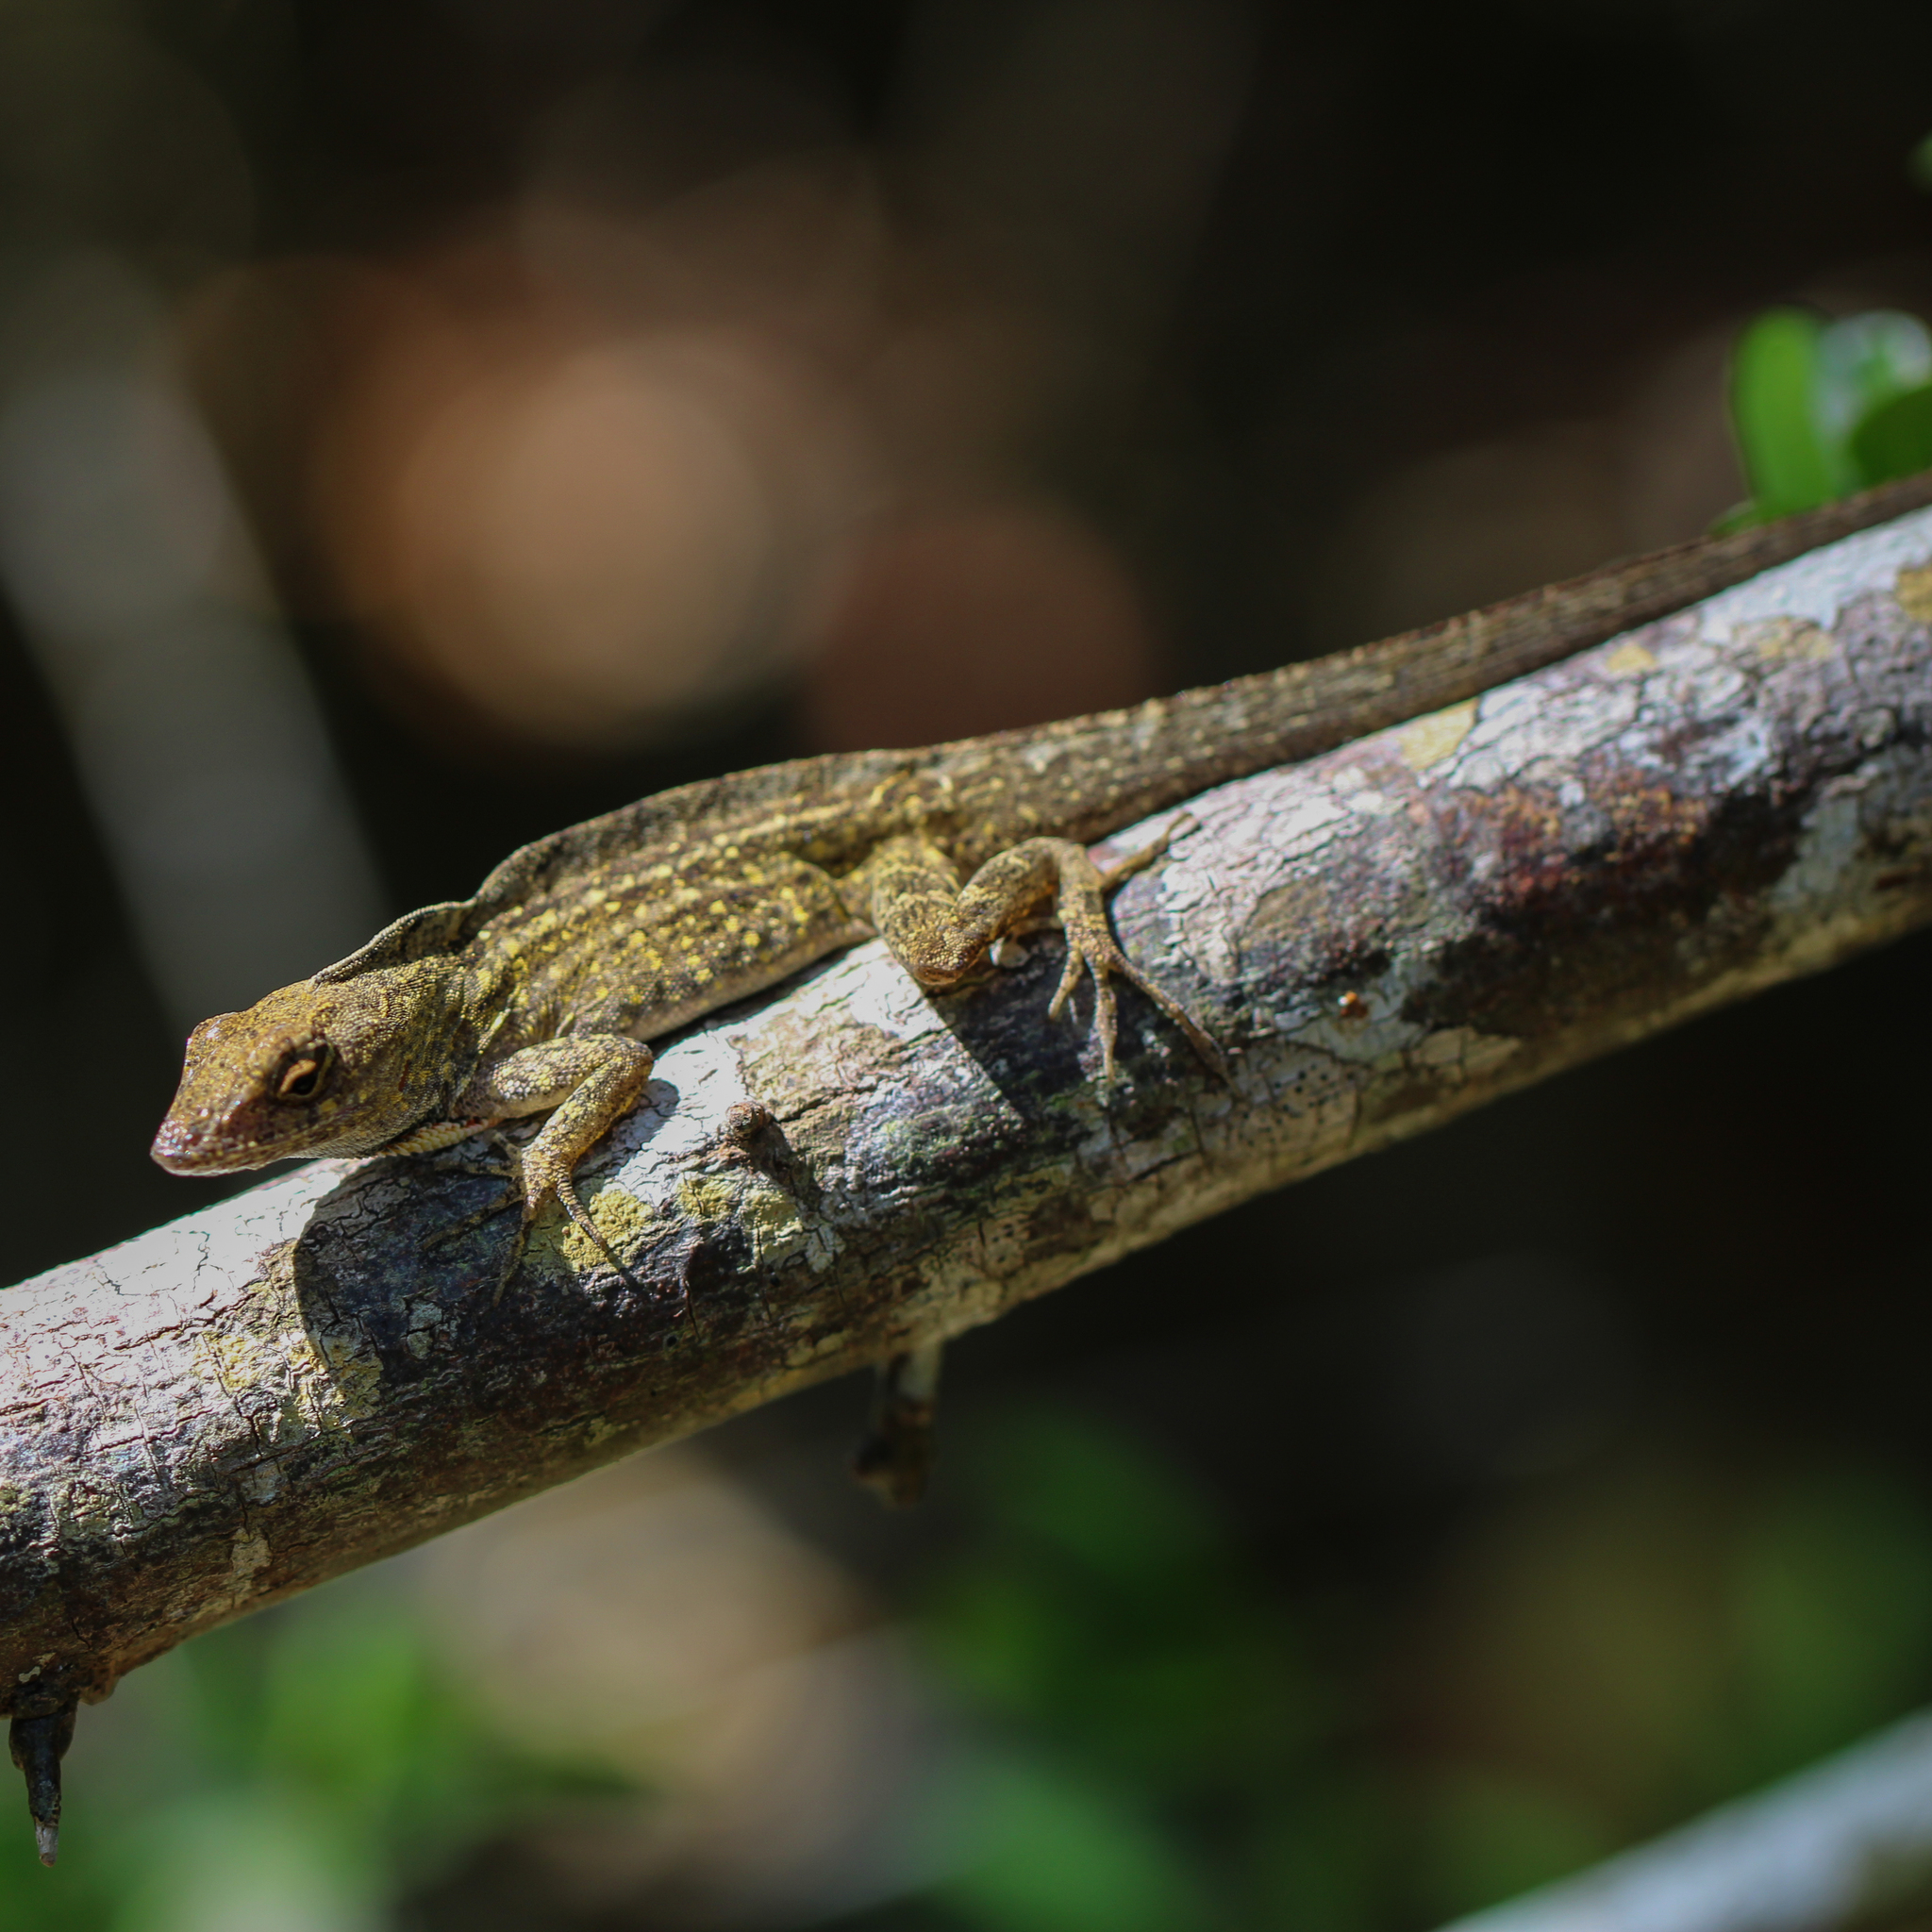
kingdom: Animalia
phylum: Chordata
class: Squamata
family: Dactyloidae
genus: Anolis
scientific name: Anolis sagrei
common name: Brown anole
